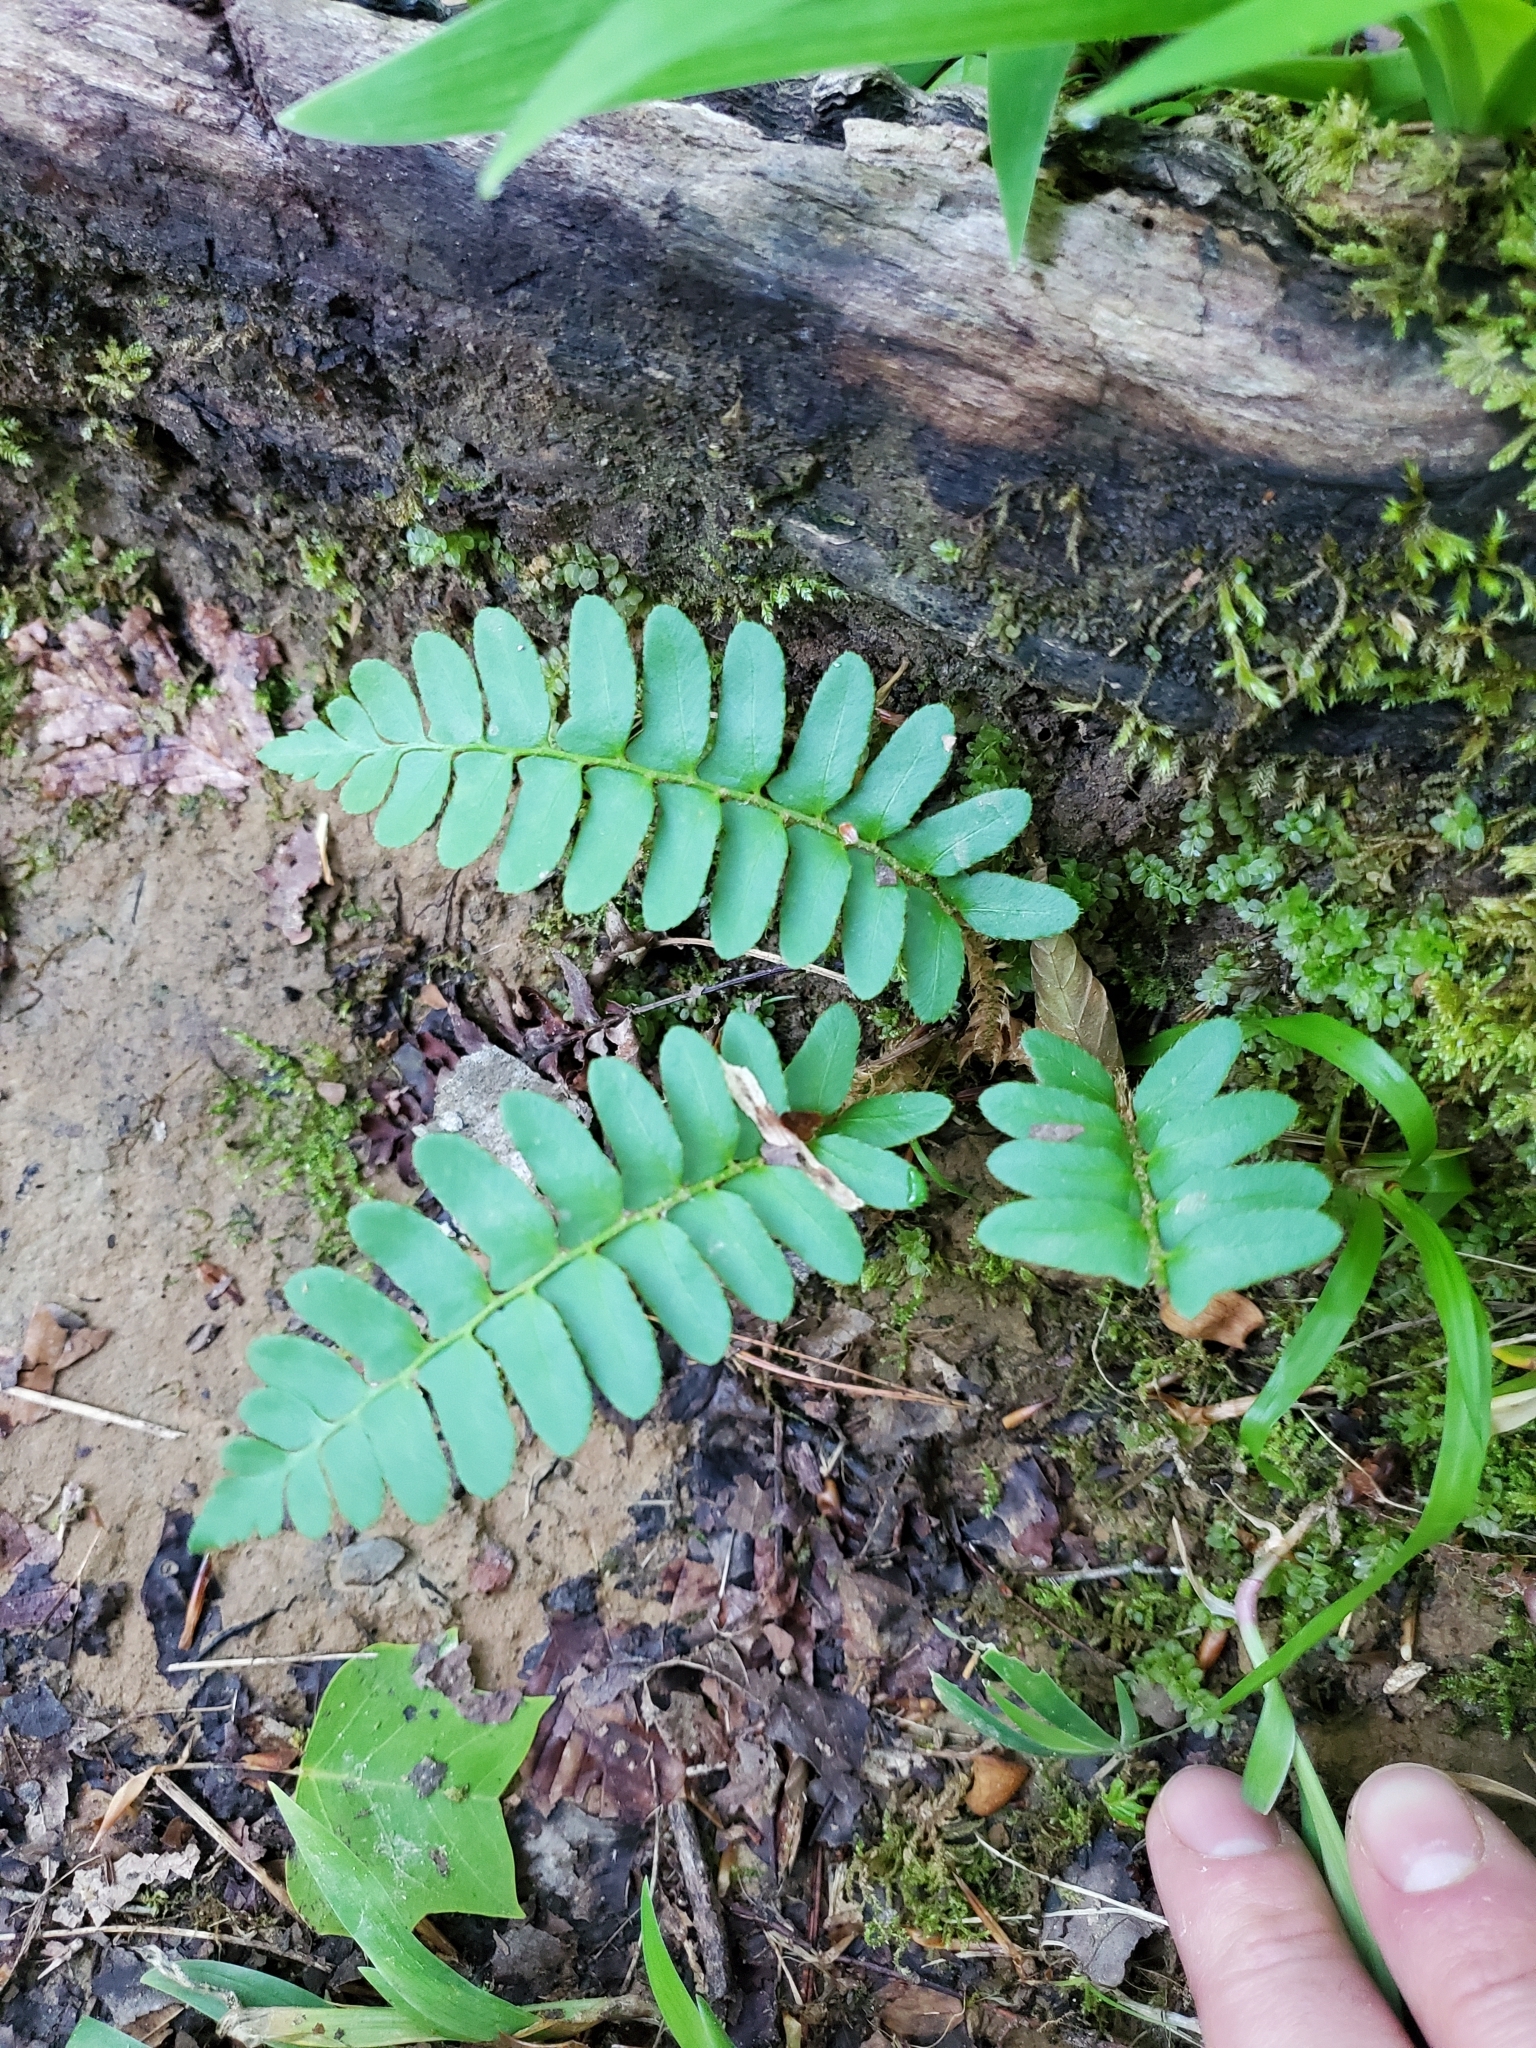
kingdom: Plantae
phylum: Tracheophyta
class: Polypodiopsida
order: Polypodiales
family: Dryopteridaceae
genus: Polystichum
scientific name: Polystichum acrostichoides
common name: Christmas fern
